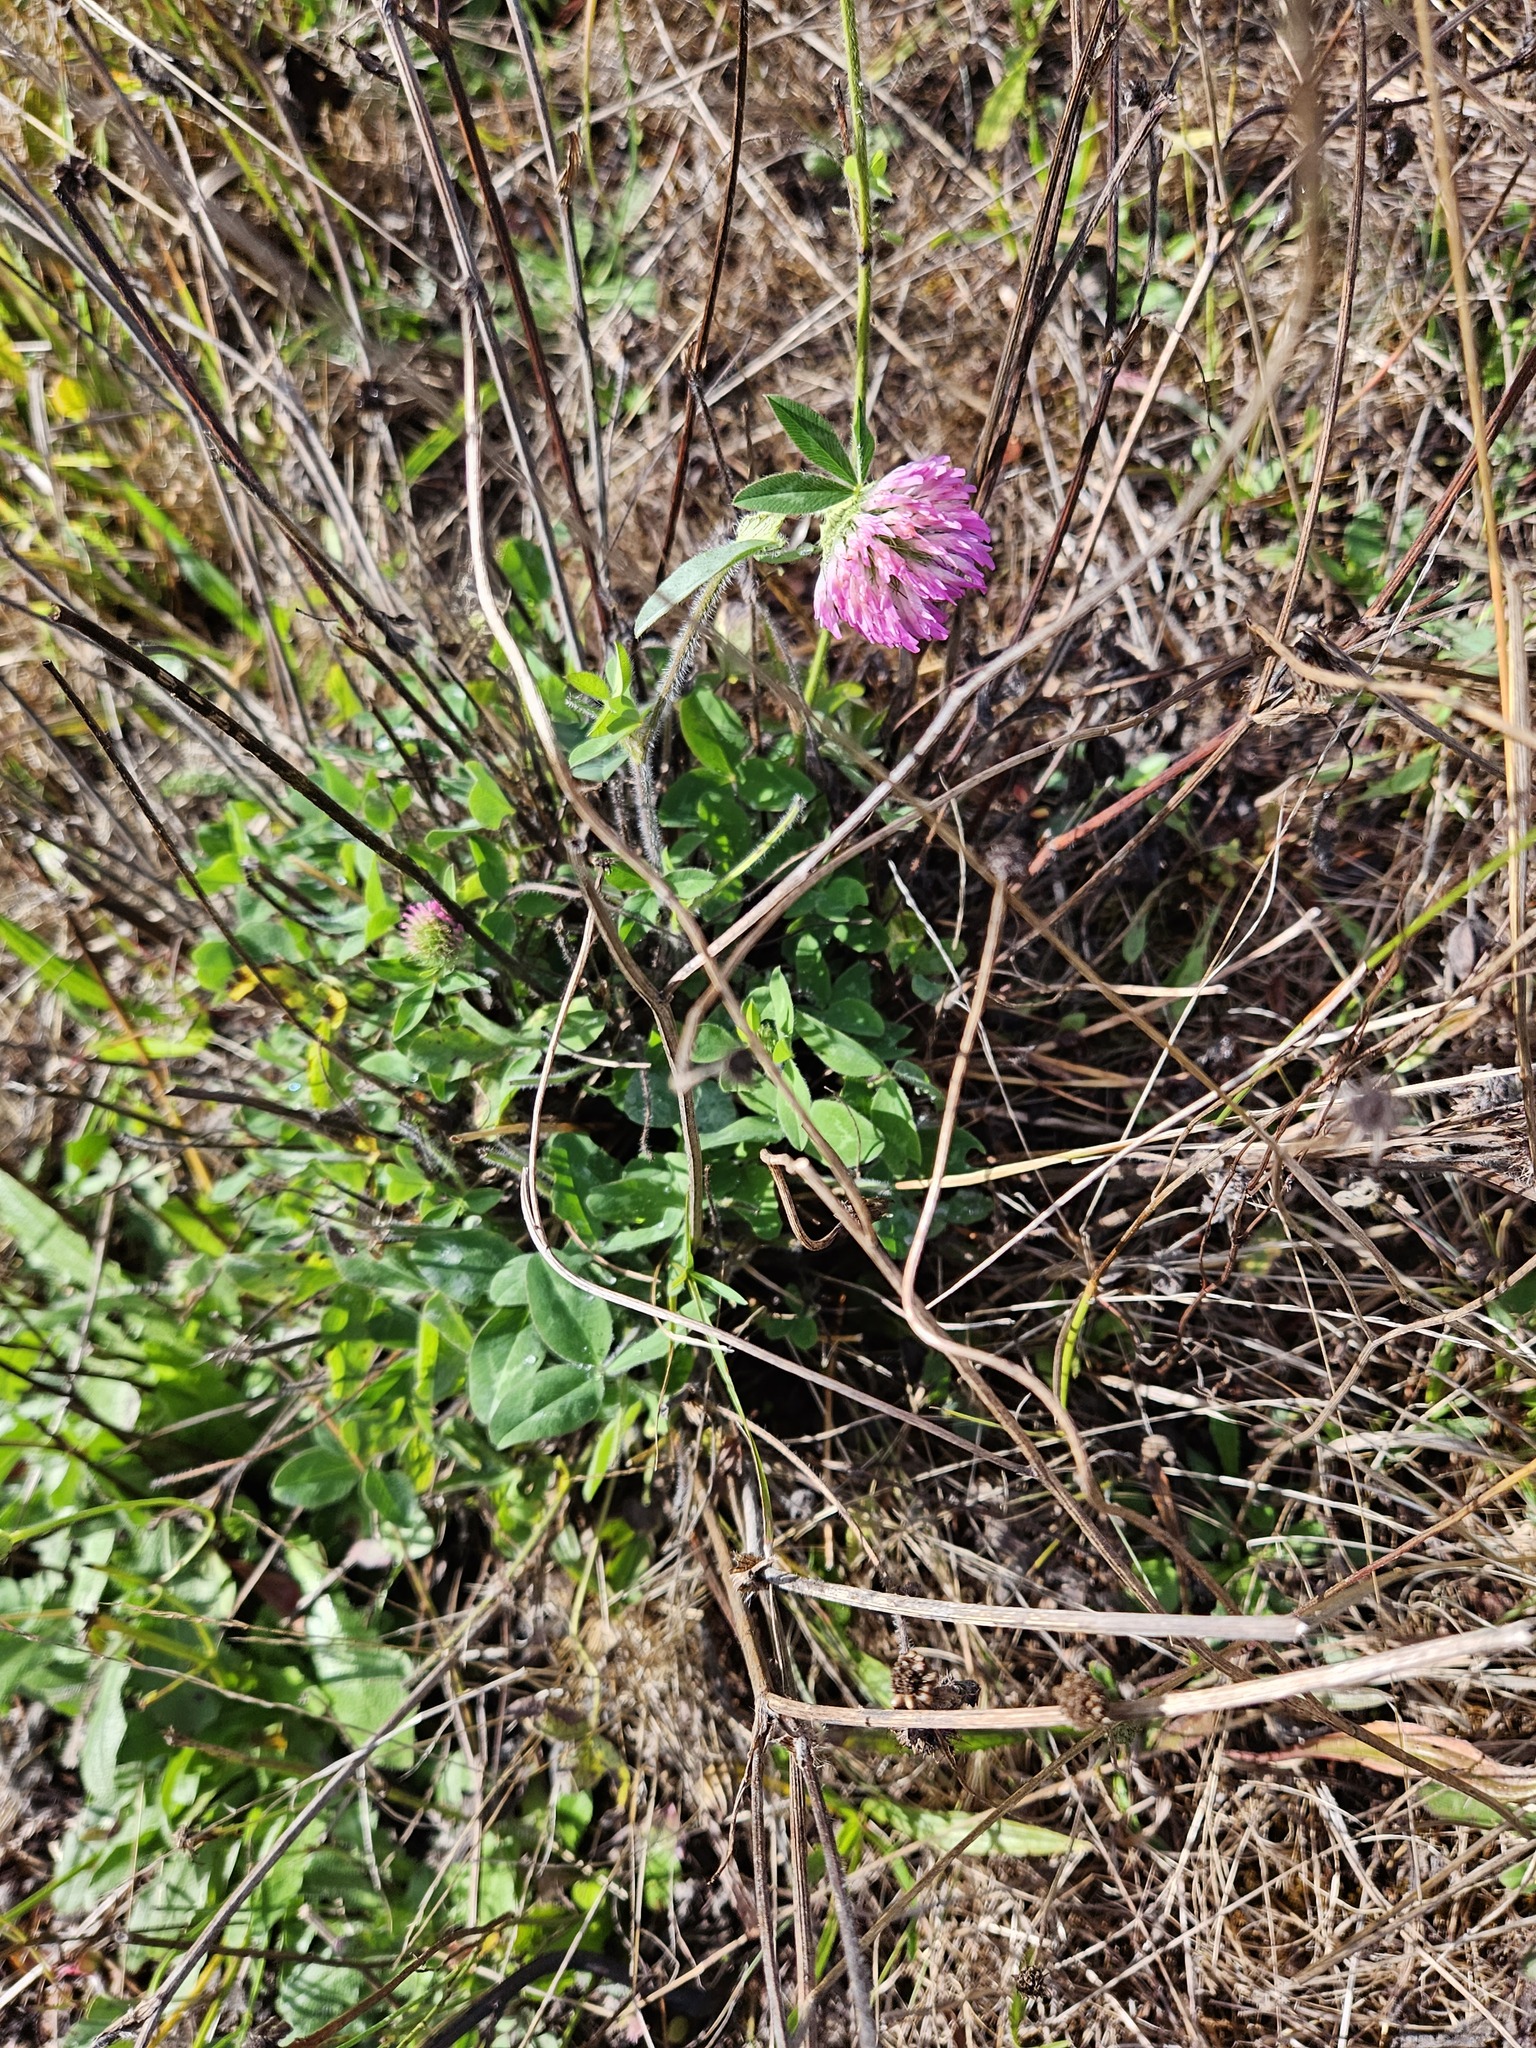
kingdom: Plantae
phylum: Tracheophyta
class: Magnoliopsida
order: Fabales
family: Fabaceae
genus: Trifolium
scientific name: Trifolium pratense
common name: Red clover
